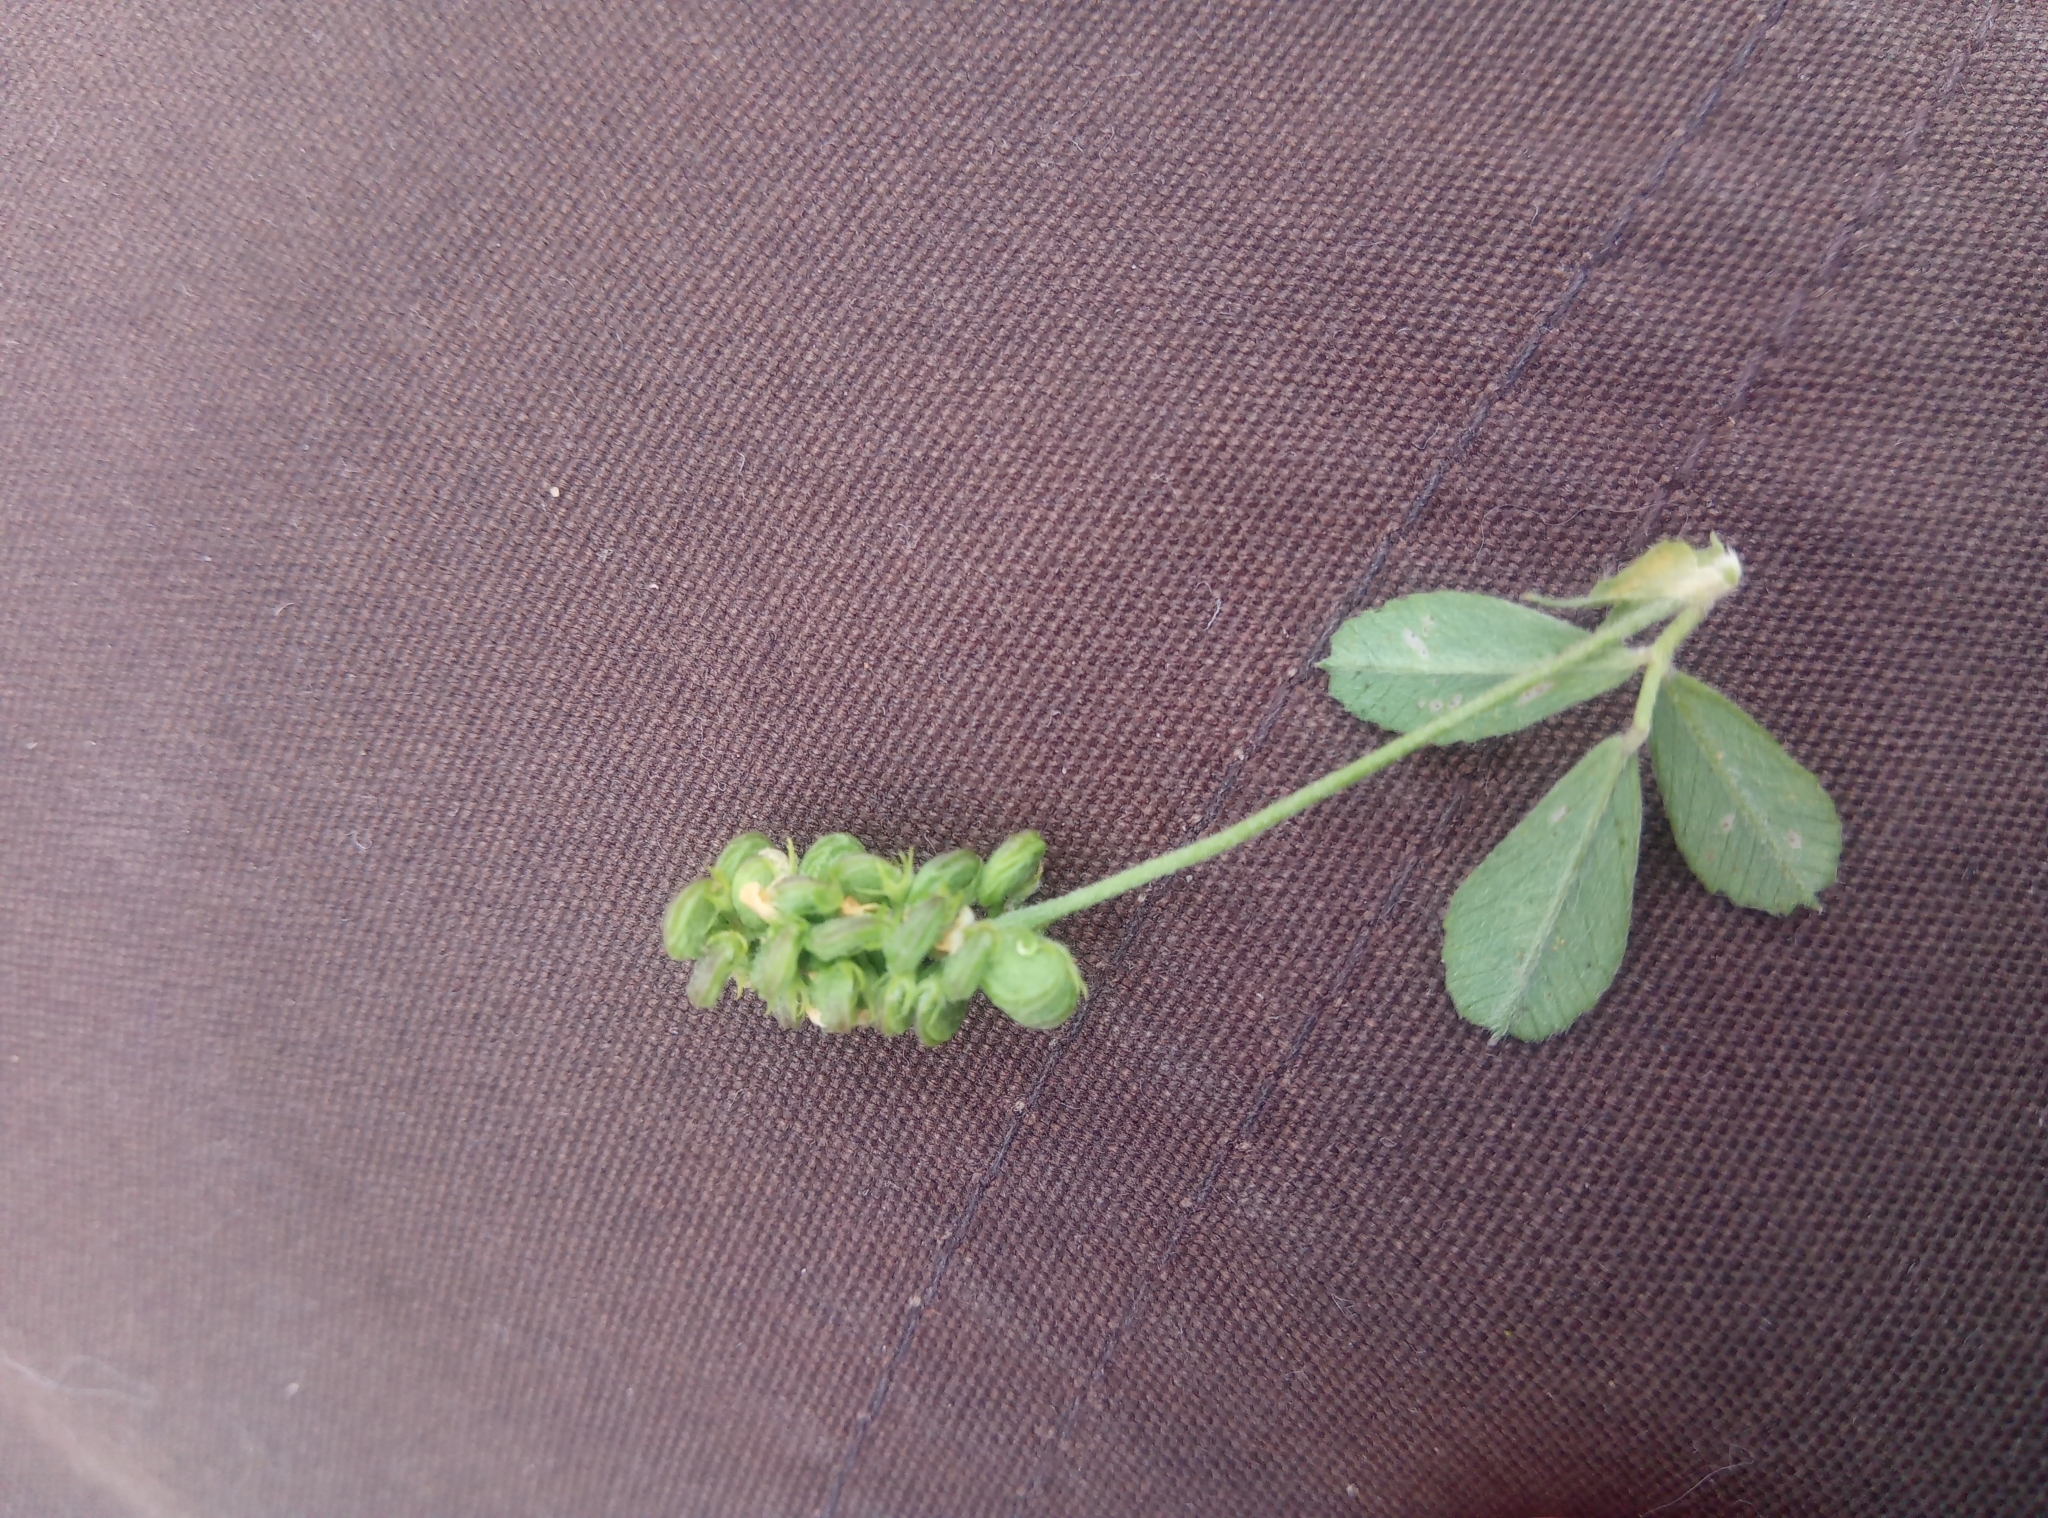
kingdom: Plantae
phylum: Tracheophyta
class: Magnoliopsida
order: Fabales
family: Fabaceae
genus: Medicago
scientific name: Medicago lupulina
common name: Black medick
